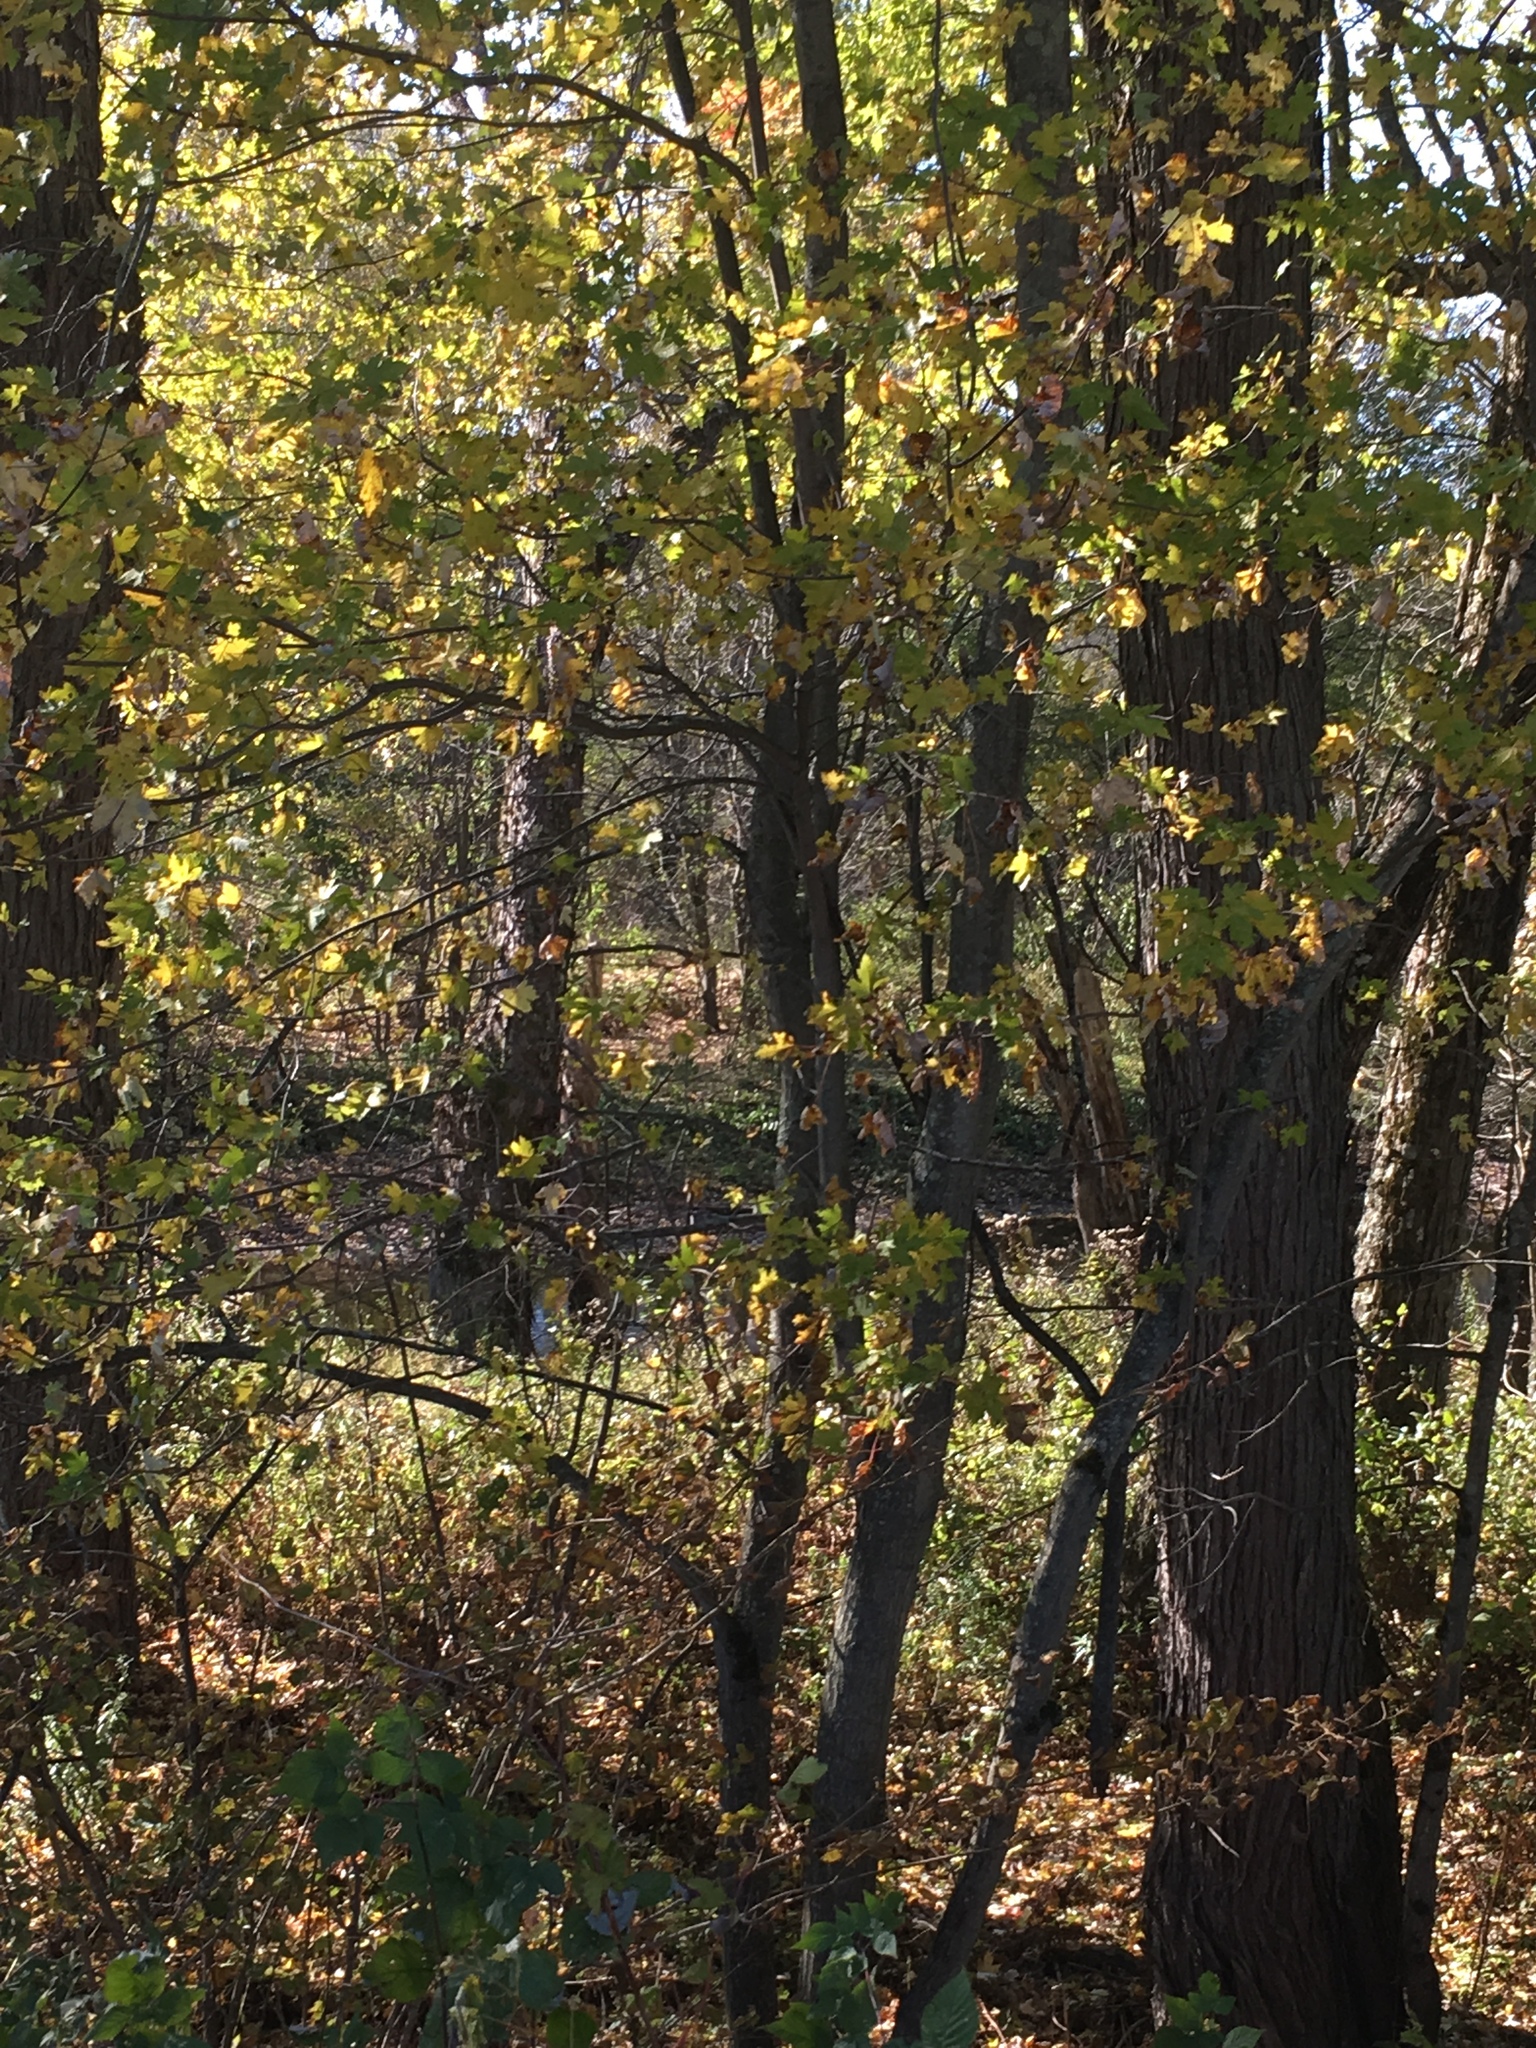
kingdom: Plantae
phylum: Tracheophyta
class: Magnoliopsida
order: Sapindales
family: Sapindaceae
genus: Acer
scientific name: Acer saccharinum
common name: Silver maple
